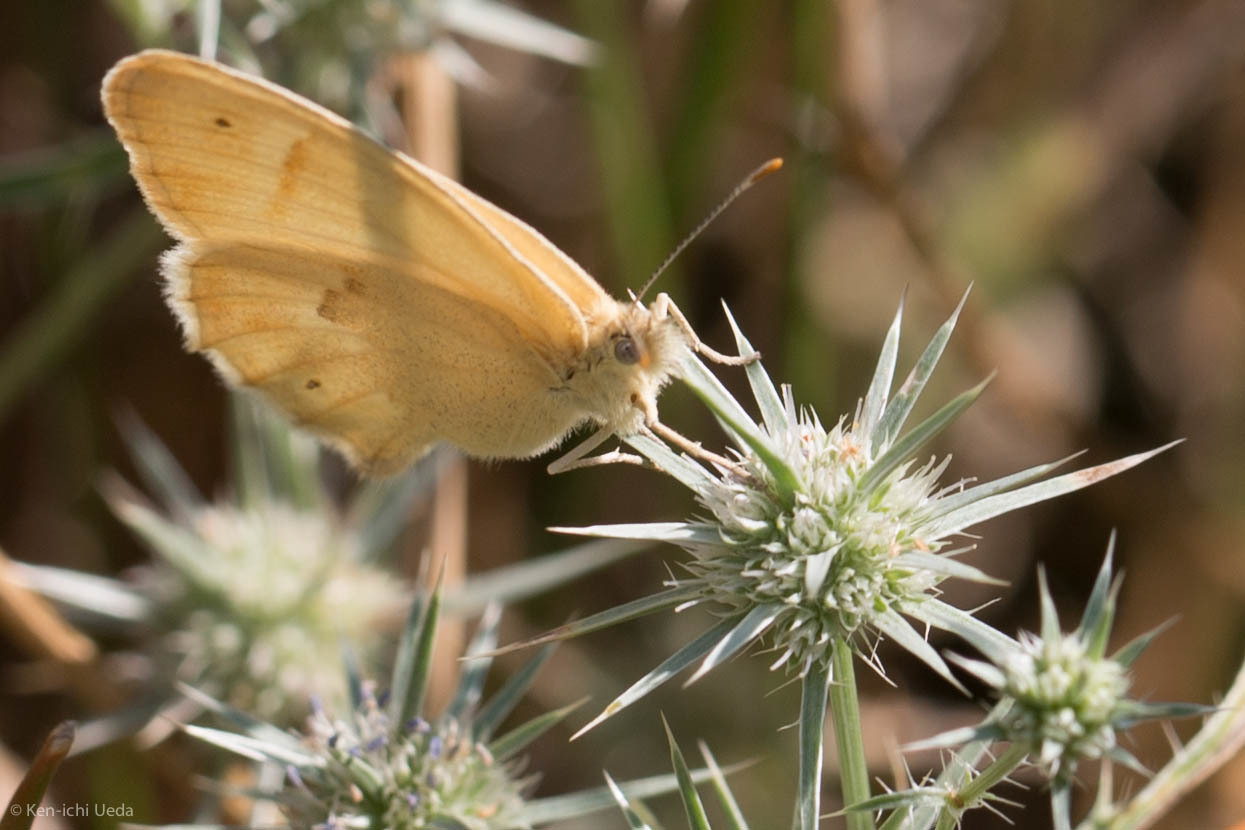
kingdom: Animalia
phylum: Arthropoda
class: Insecta
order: Lepidoptera
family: Nymphalidae
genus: Coenonympha
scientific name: Coenonympha california
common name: Common ringlet
